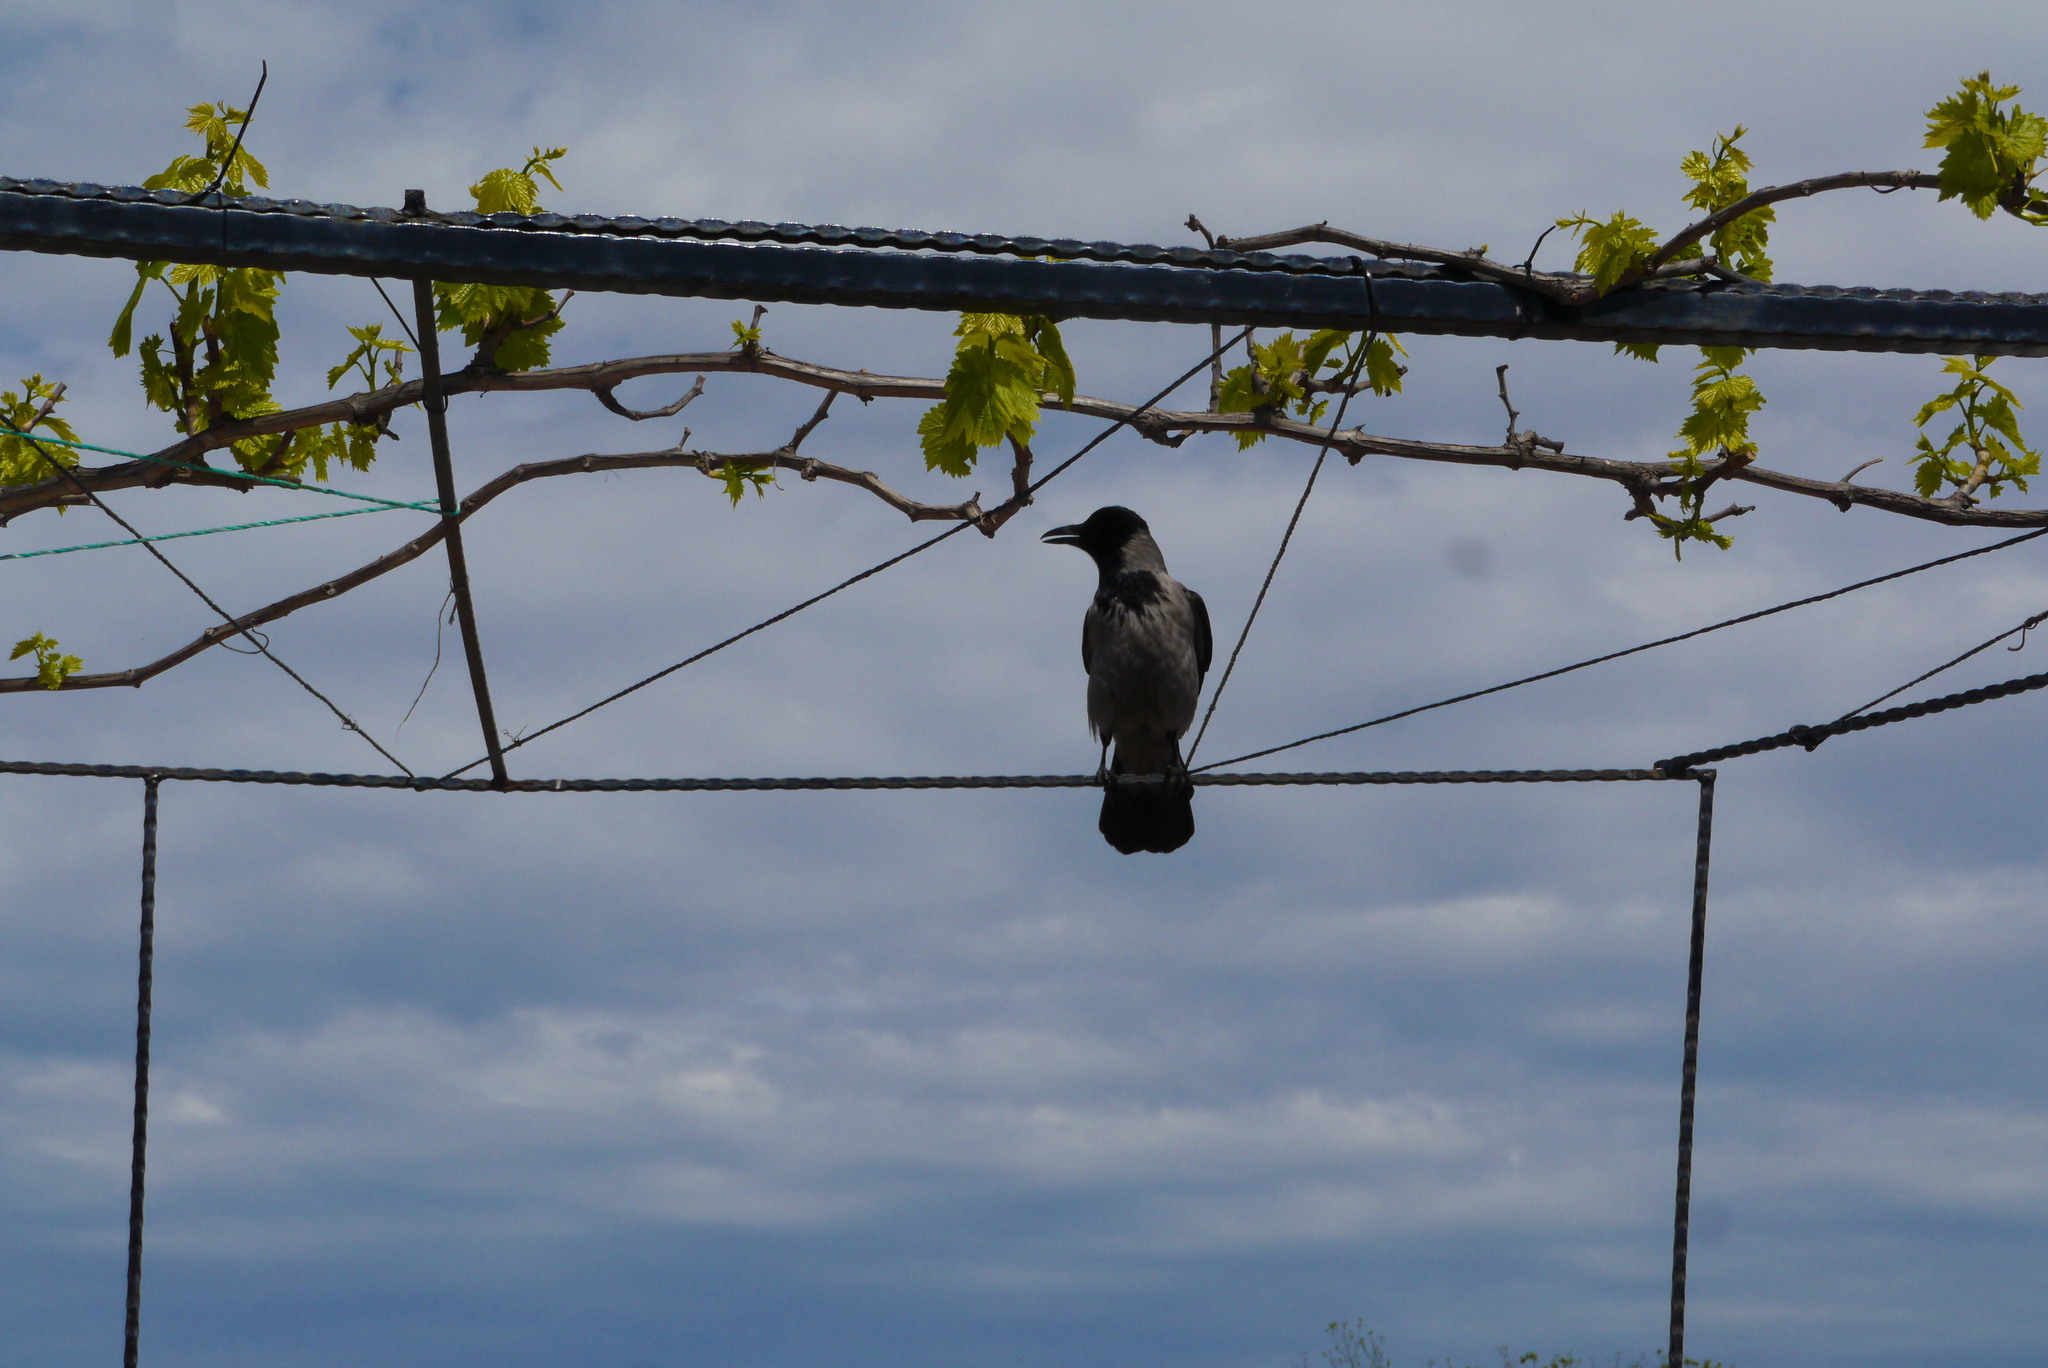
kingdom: Animalia
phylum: Chordata
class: Aves
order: Passeriformes
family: Corvidae
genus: Corvus
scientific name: Corvus cornix
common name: Hooded crow
